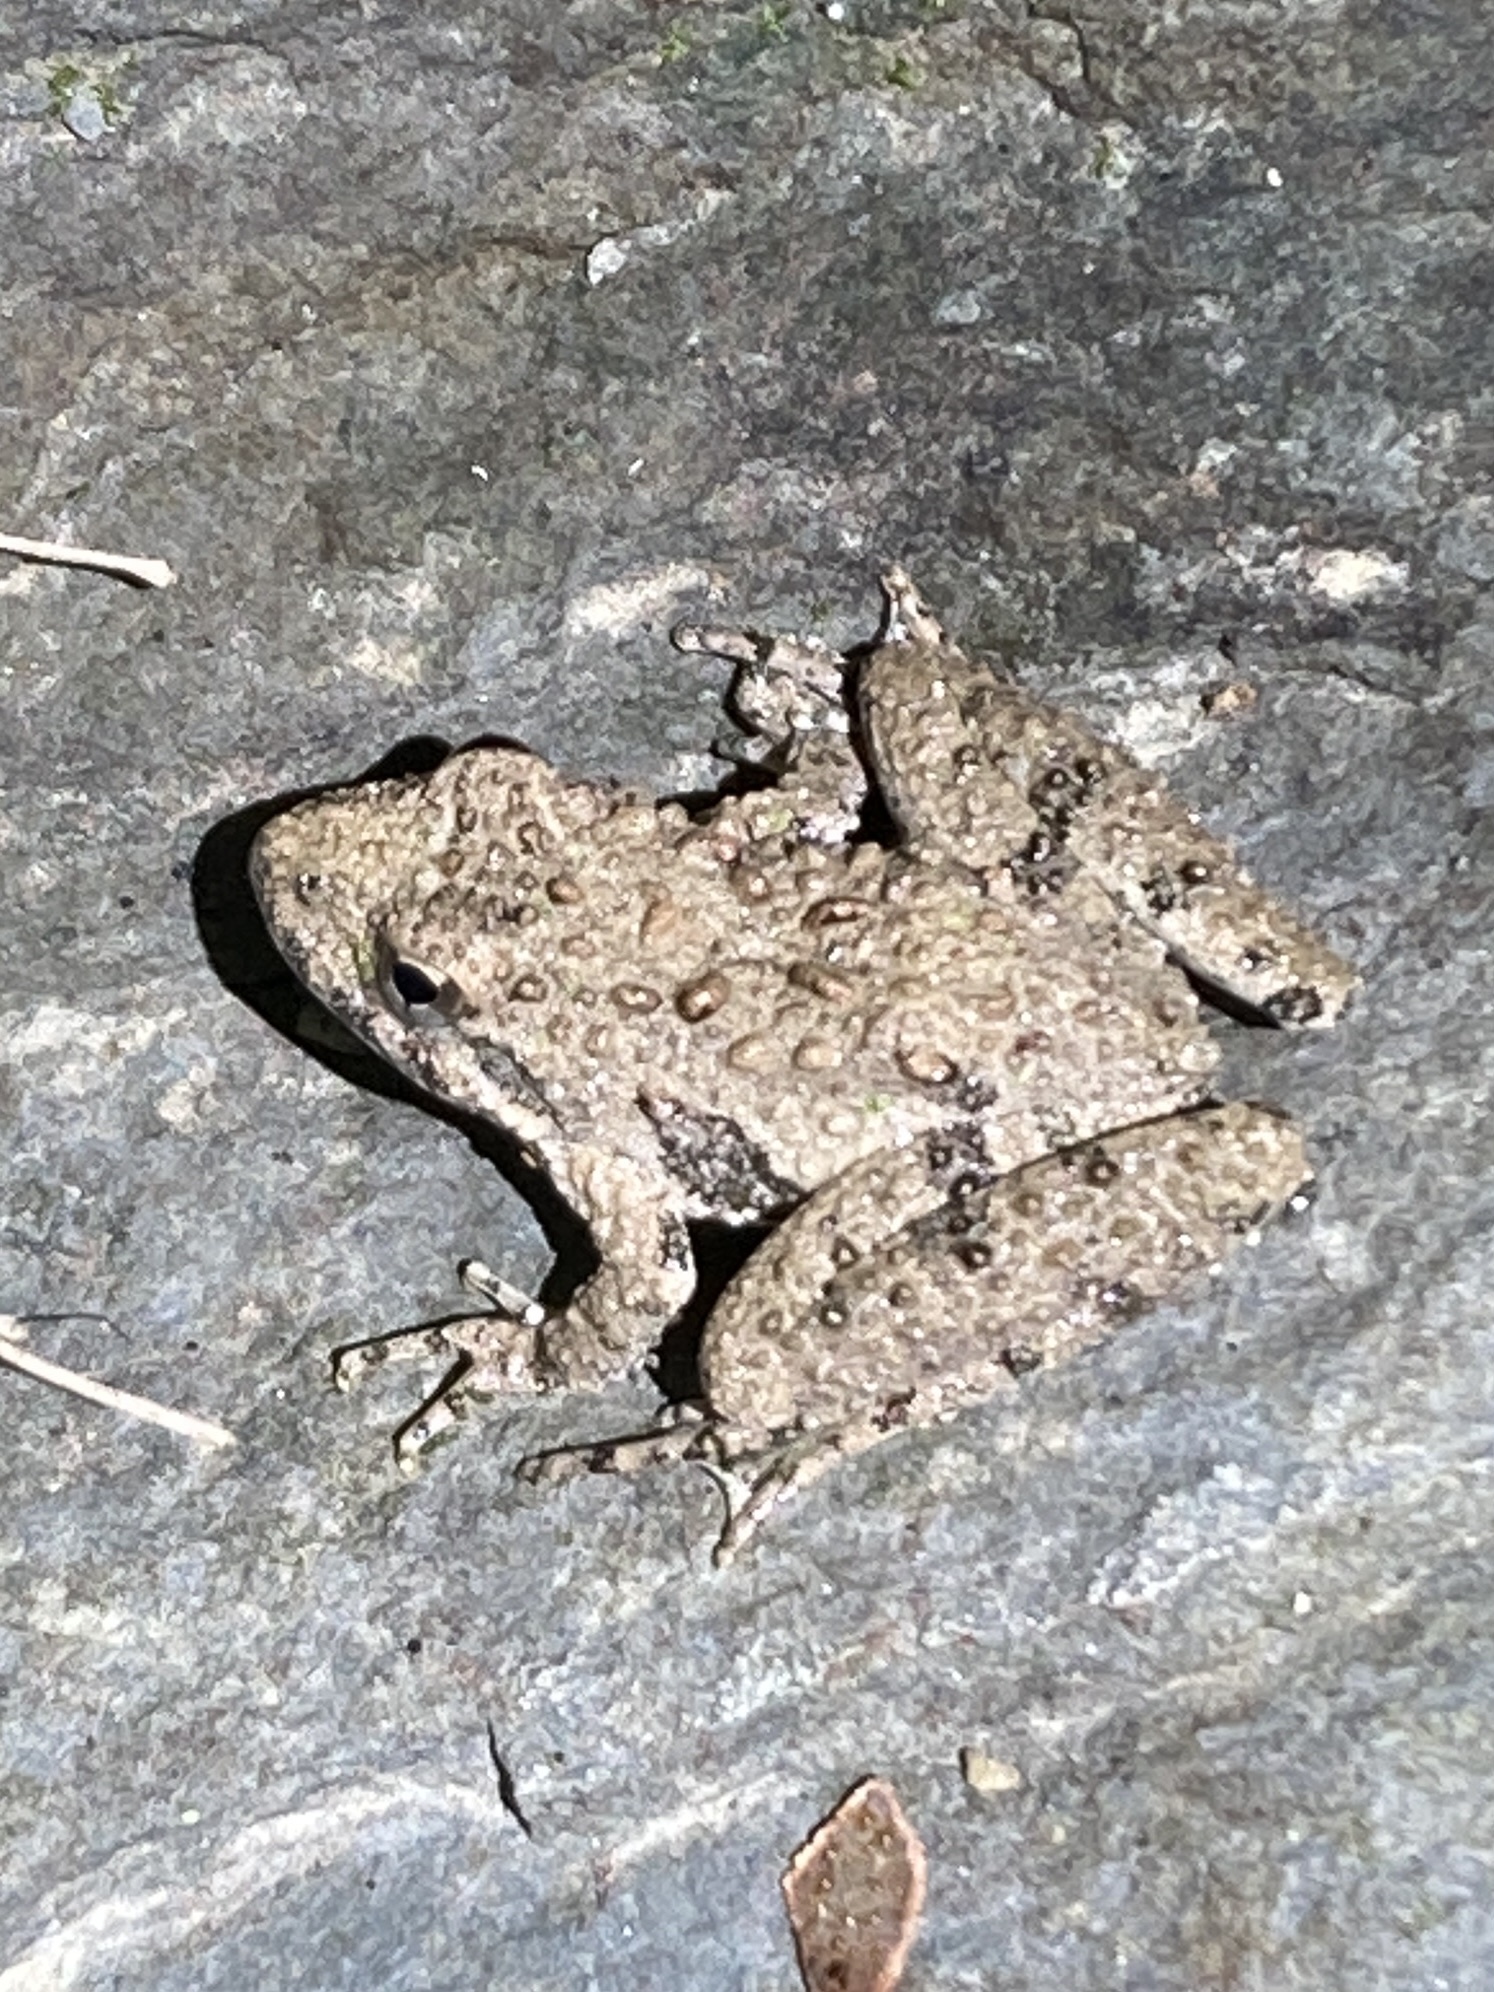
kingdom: Animalia
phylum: Chordata
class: Amphibia
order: Anura
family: Hylidae
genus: Acris
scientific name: Acris blanchardi
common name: Blanchard's cricket frog
